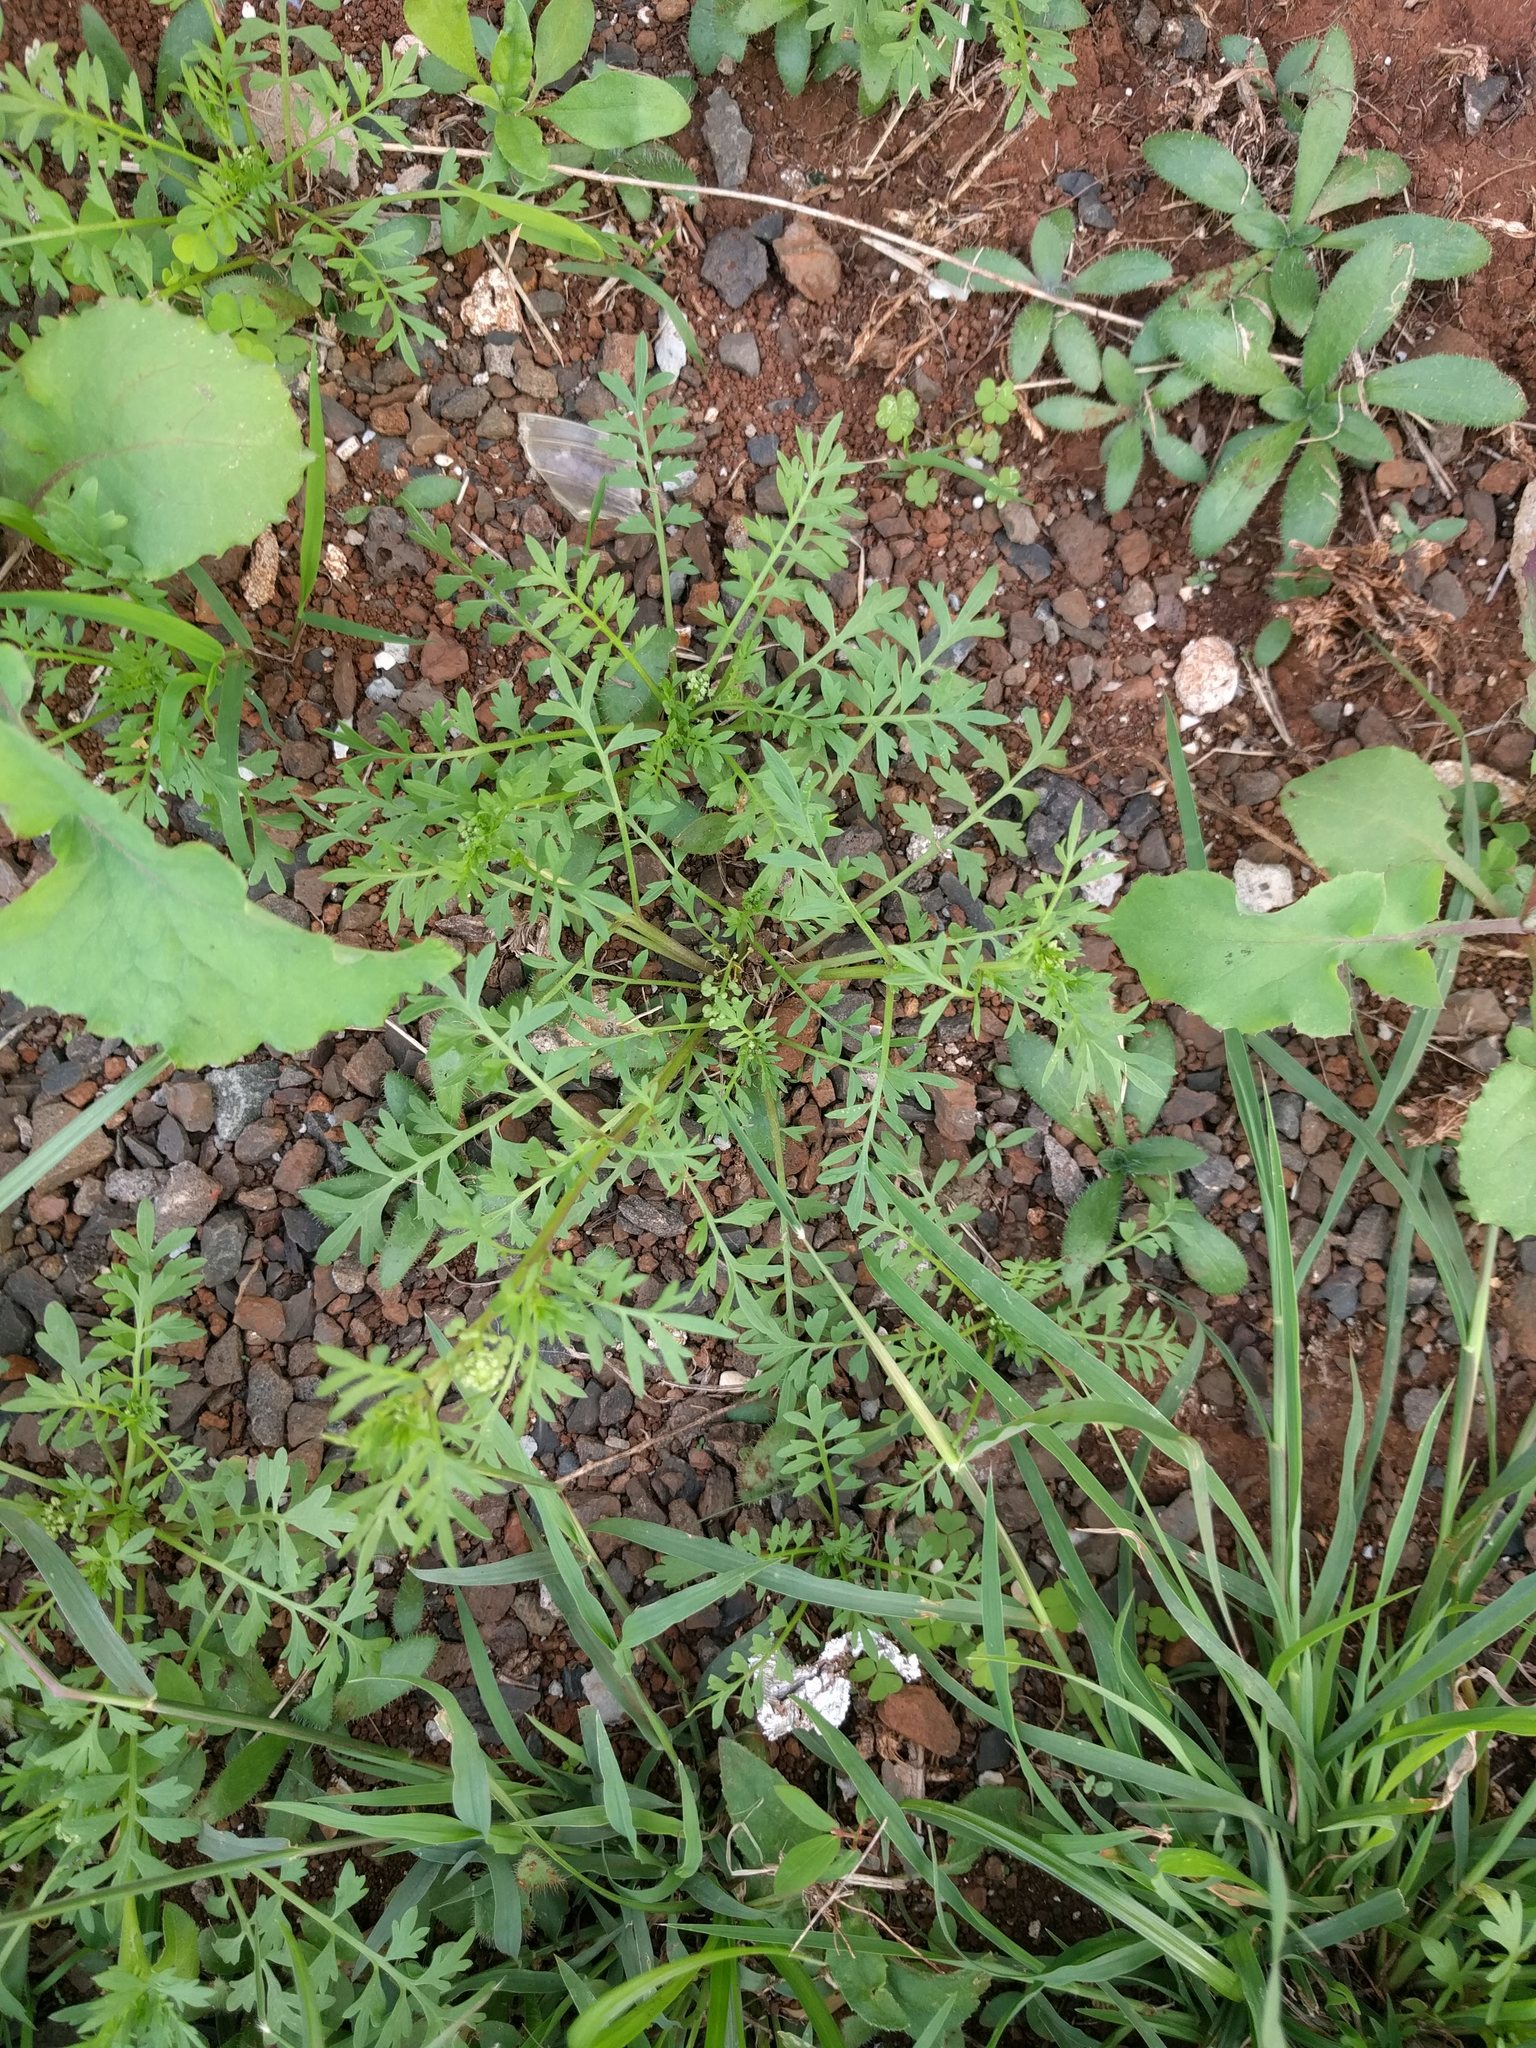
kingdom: Plantae
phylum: Tracheophyta
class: Magnoliopsida
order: Brassicales
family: Brassicaceae
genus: Lepidium
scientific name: Lepidium didymum
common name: Lesser swinecress
